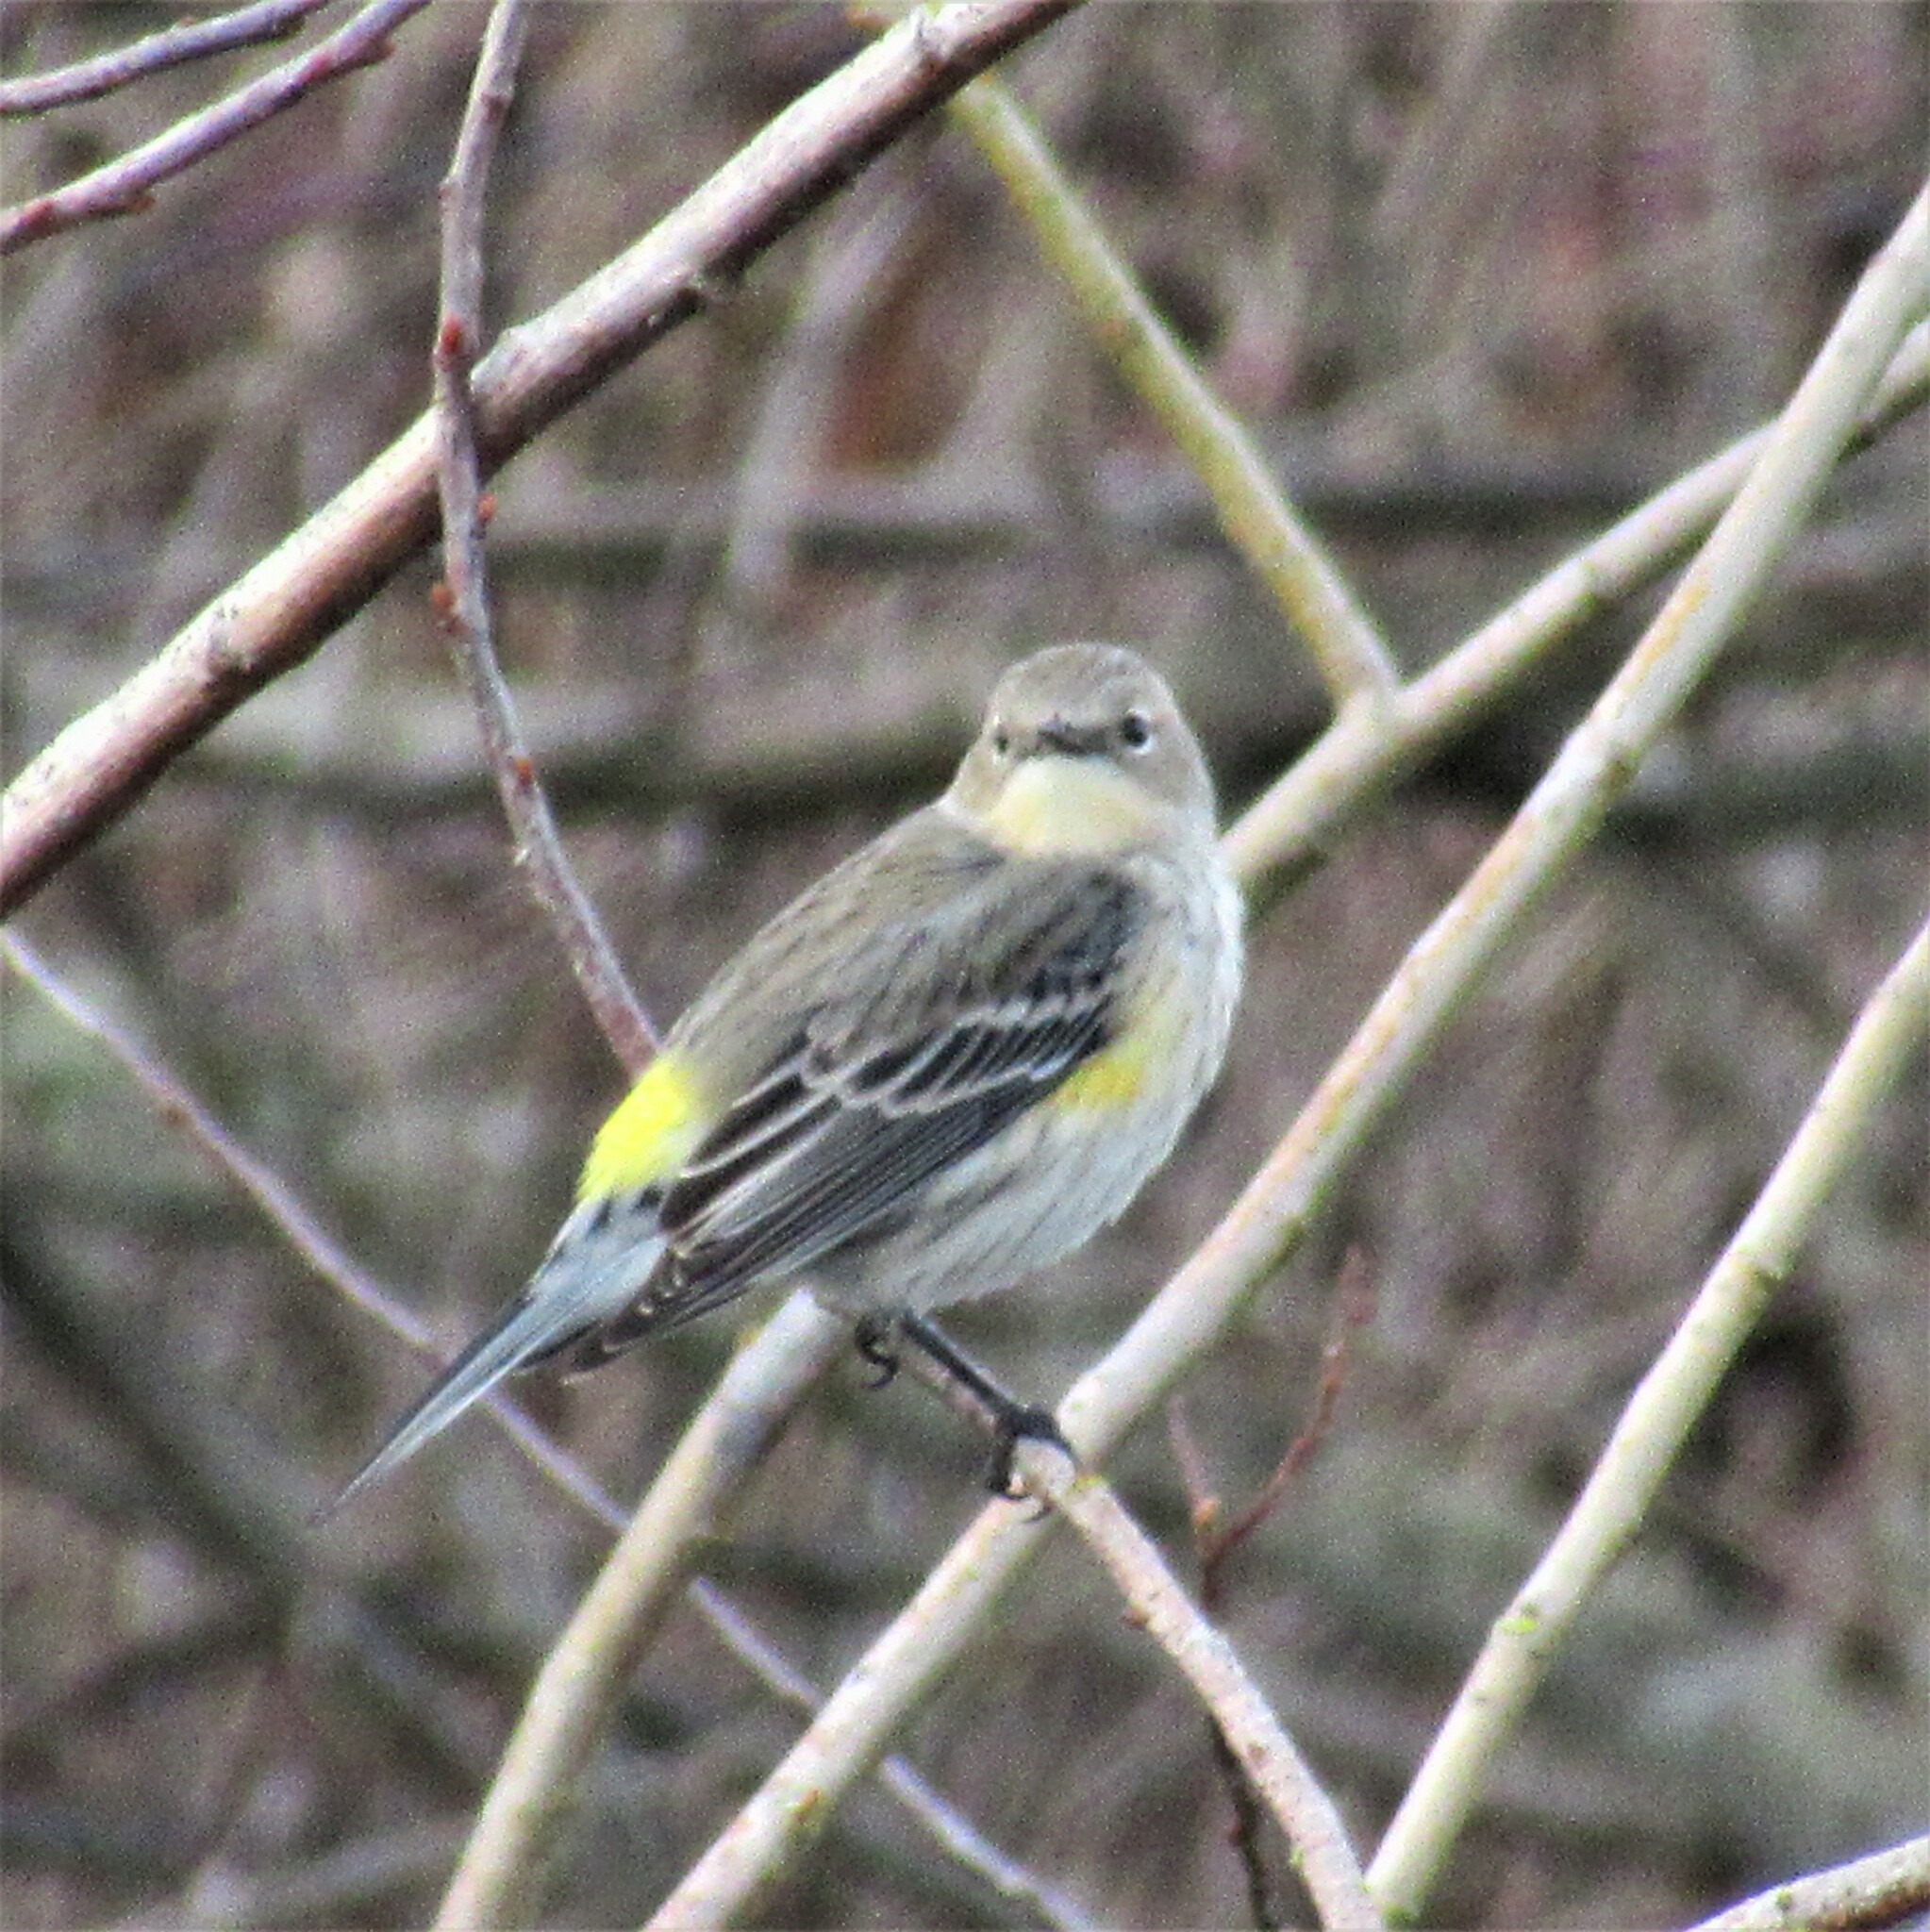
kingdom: Animalia
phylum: Chordata
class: Aves
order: Passeriformes
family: Parulidae
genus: Setophaga
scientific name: Setophaga coronata
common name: Myrtle warbler
